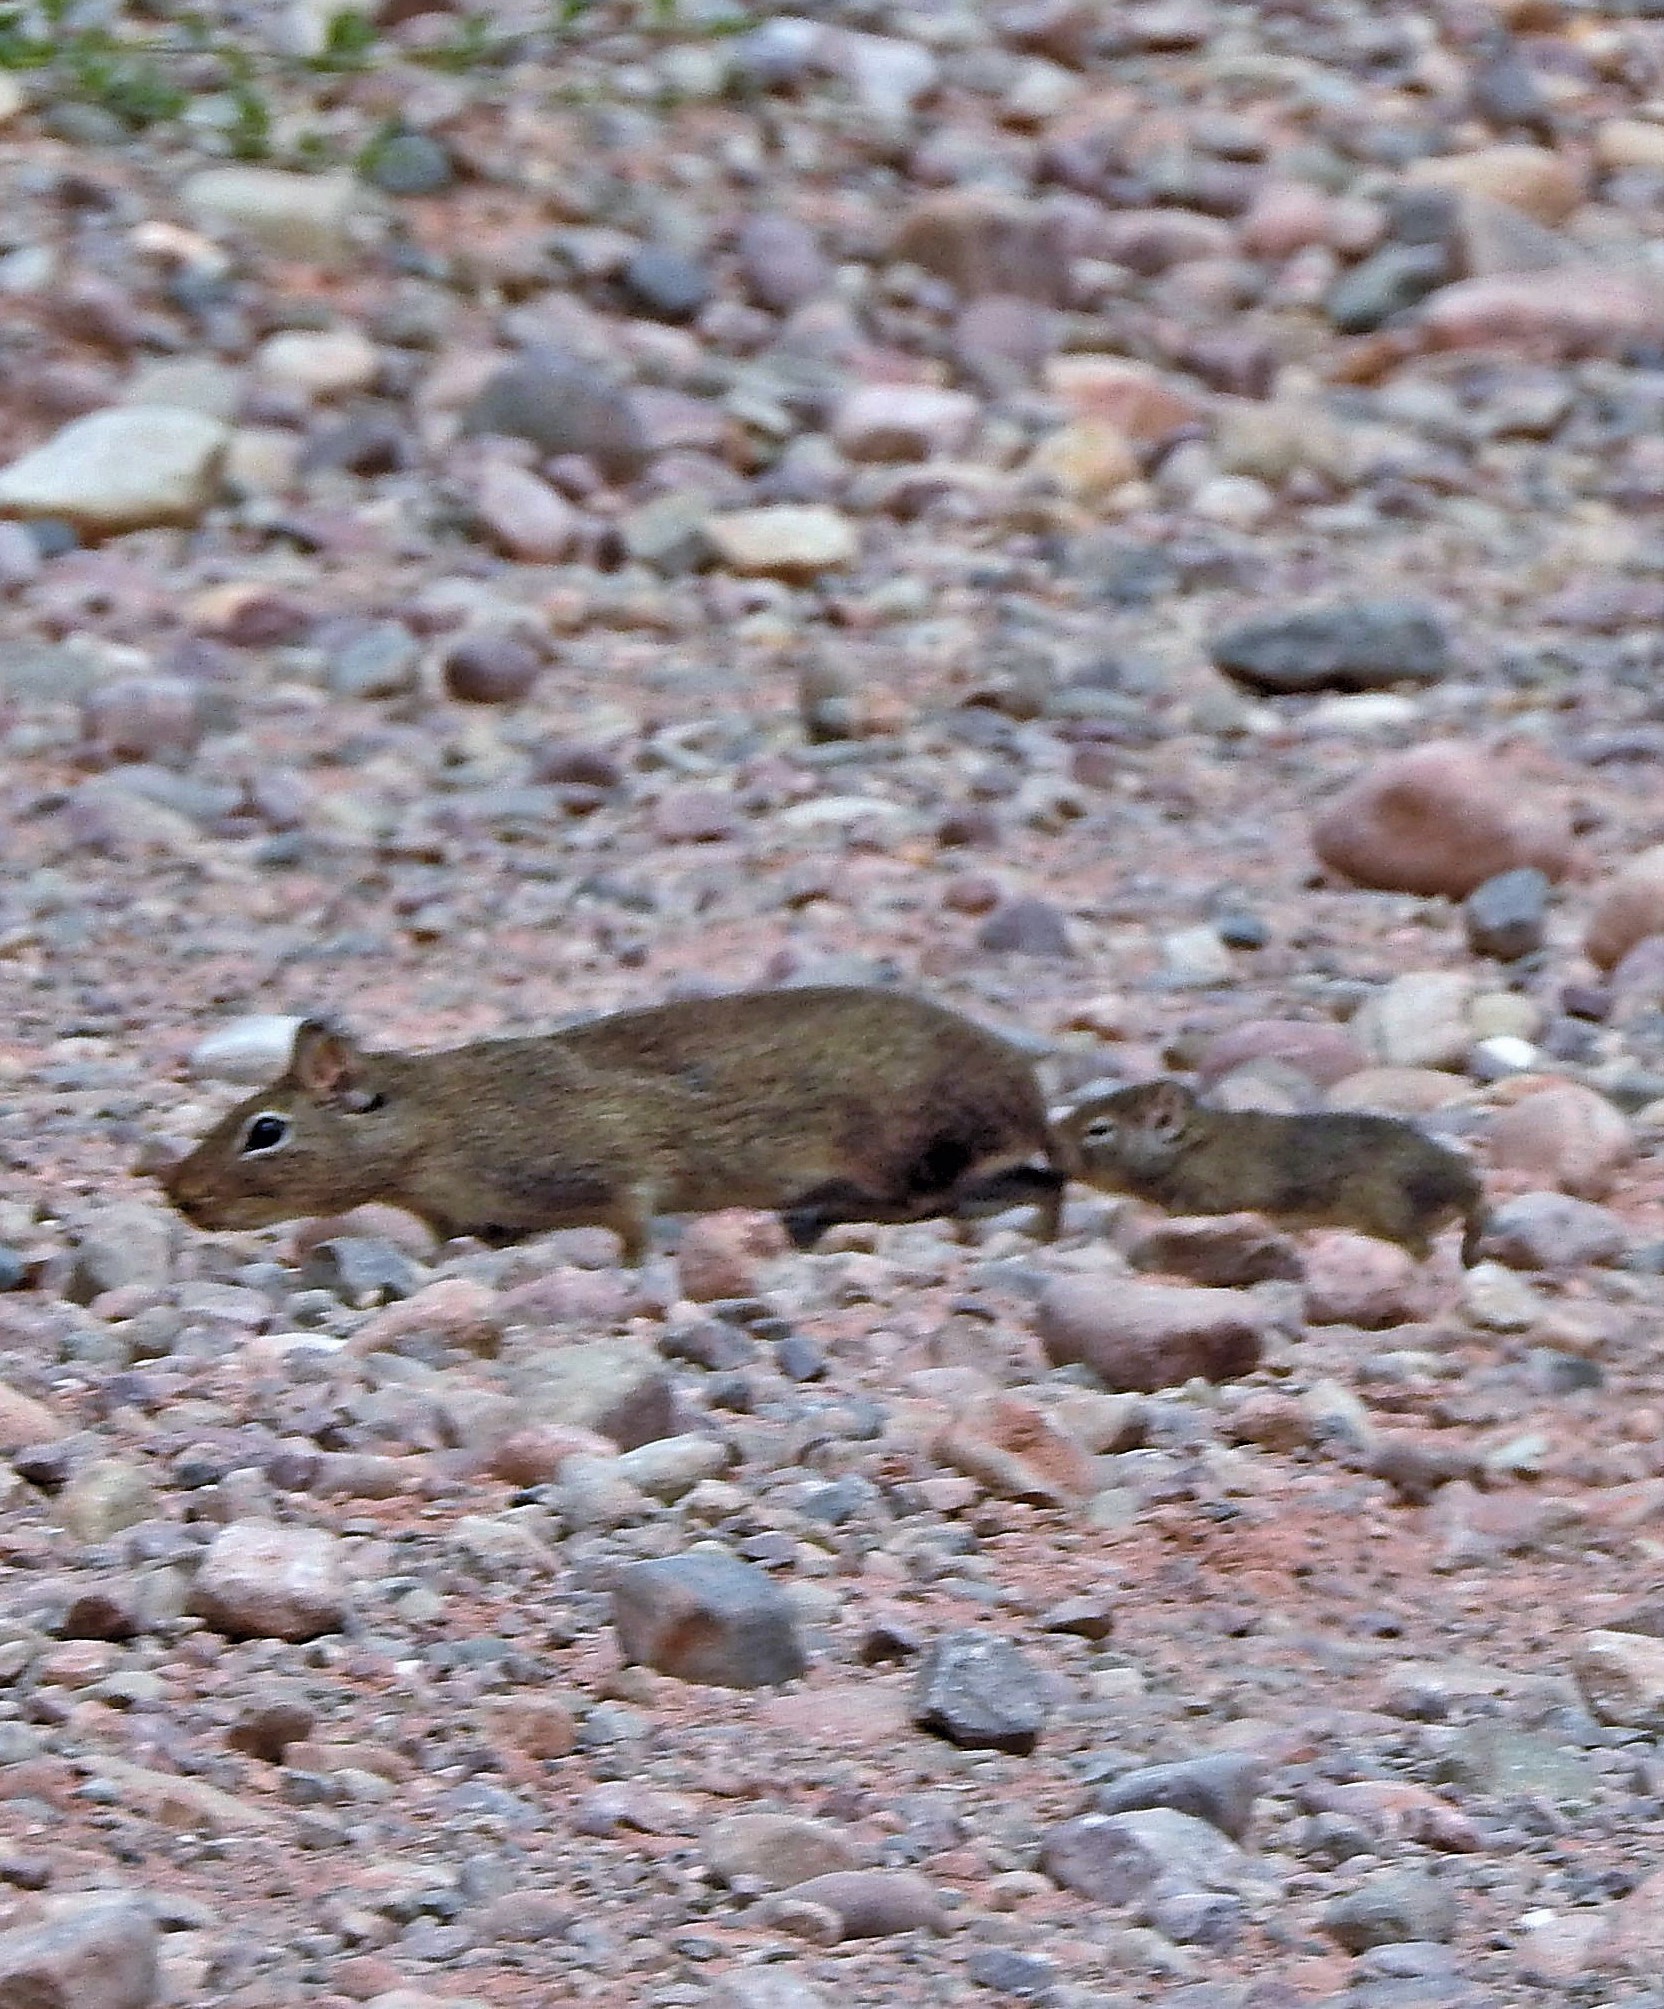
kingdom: Animalia
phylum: Chordata
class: Mammalia
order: Rodentia
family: Caviidae
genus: Galea
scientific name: Galea musteloides
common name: Common yellow-toothed cavy
